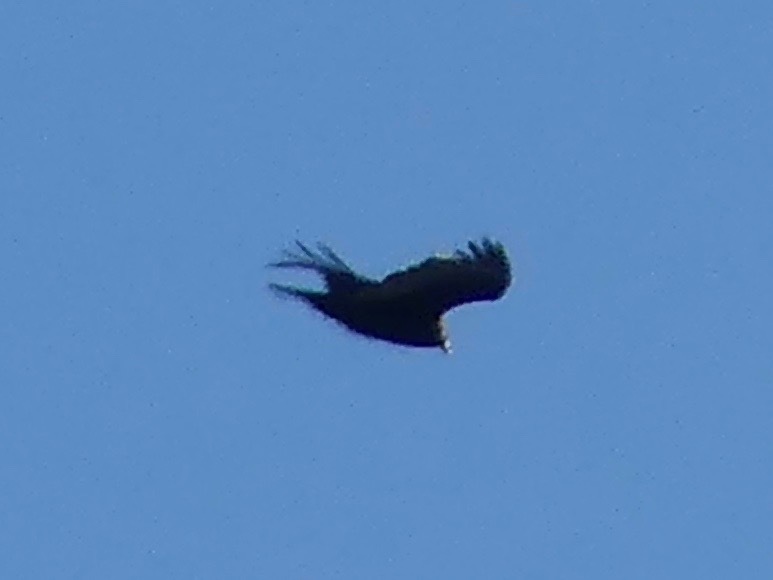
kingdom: Animalia
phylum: Chordata
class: Aves
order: Accipitriformes
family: Cathartidae
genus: Cathartes
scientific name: Cathartes aura
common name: Turkey vulture
